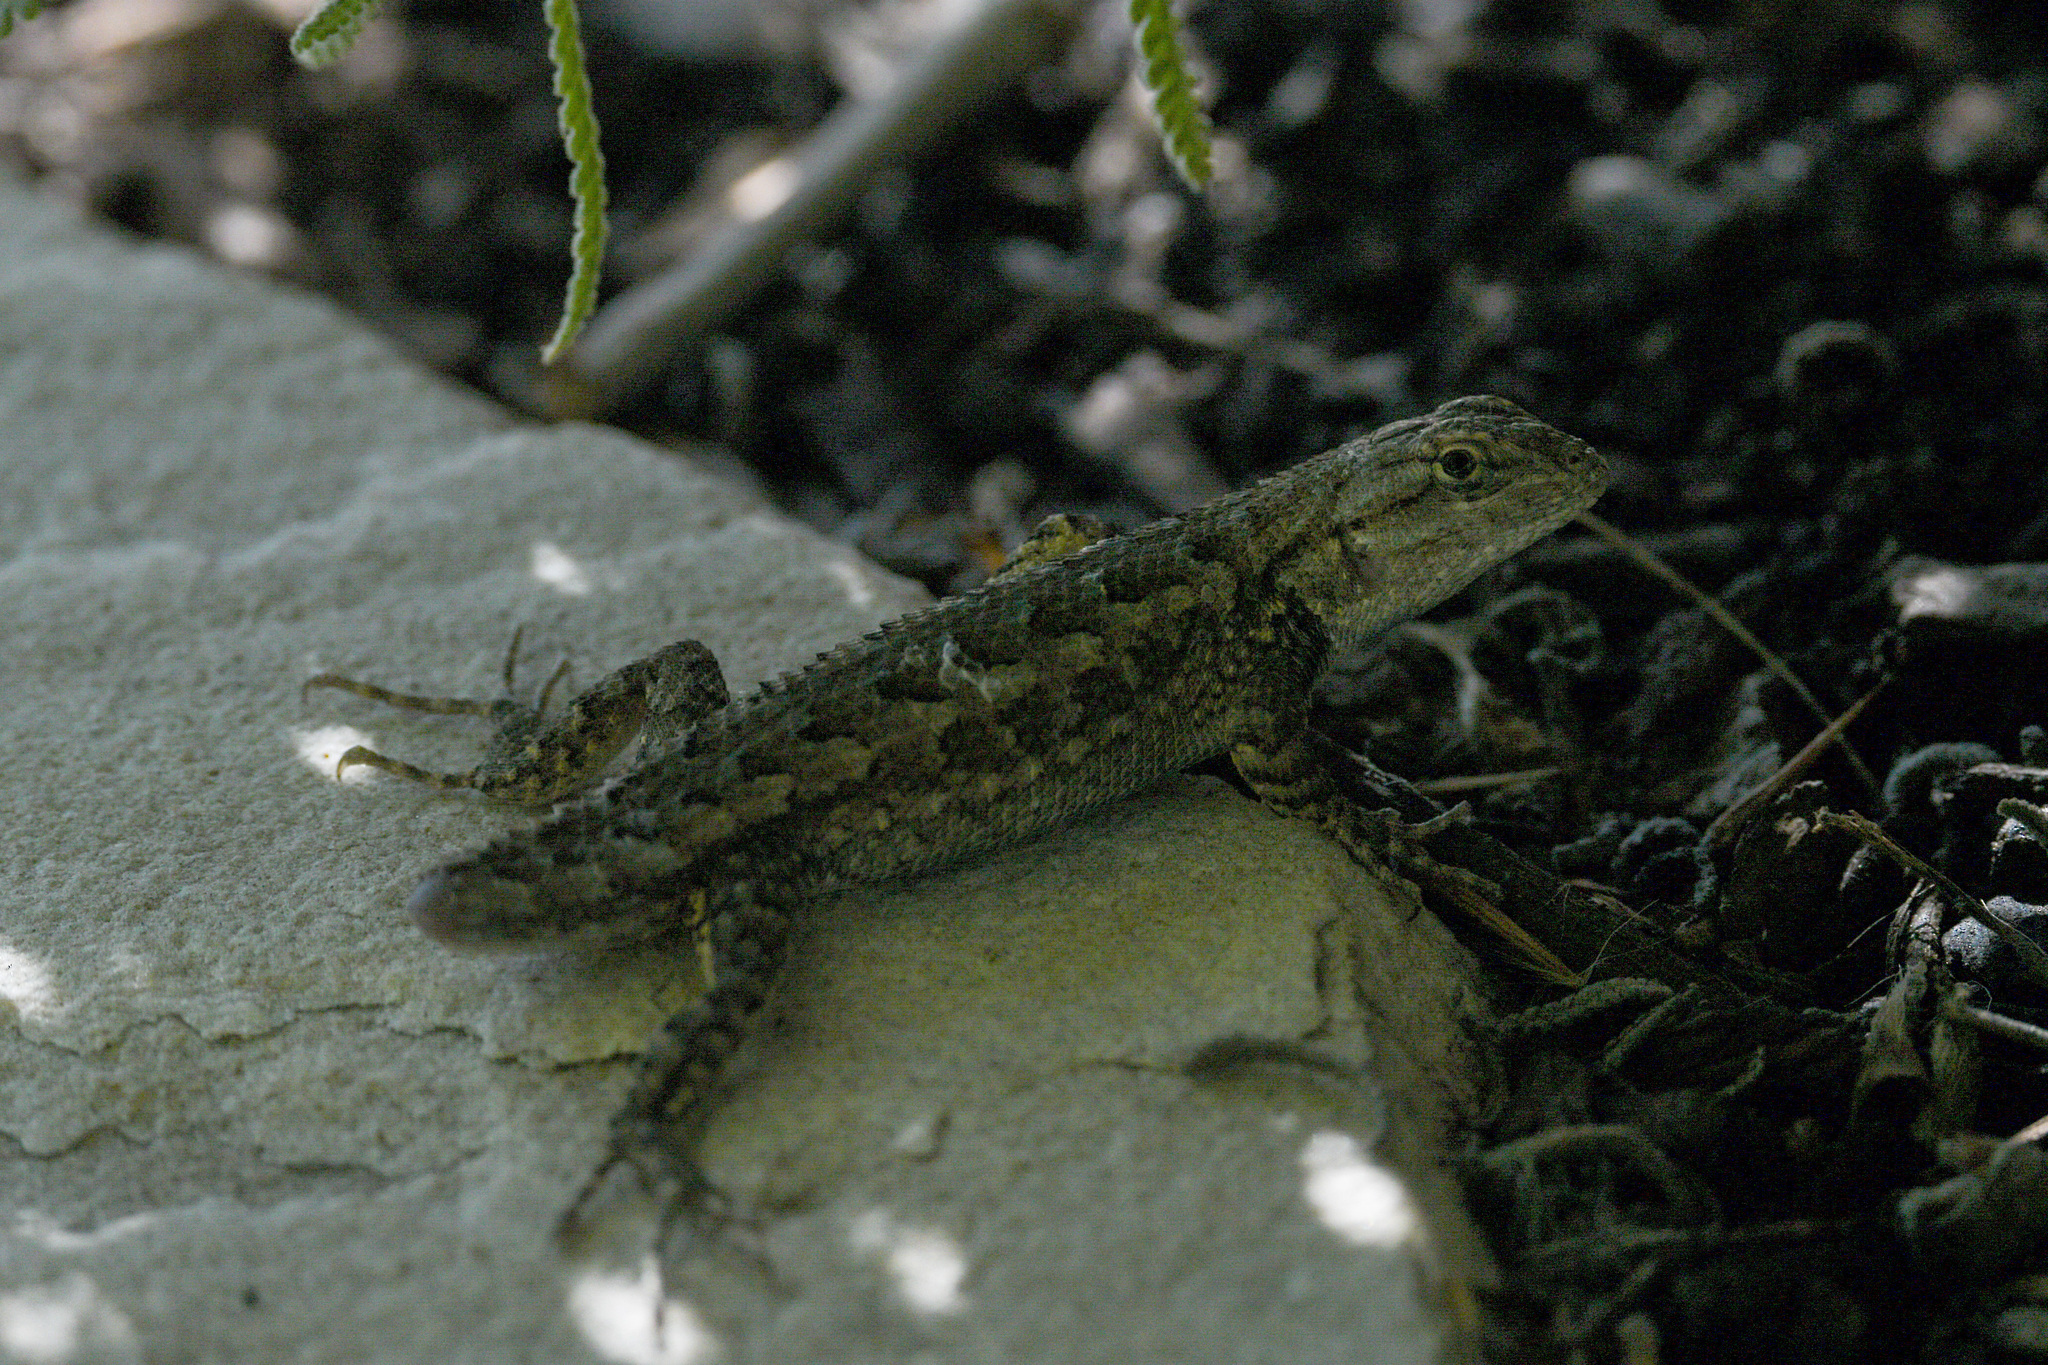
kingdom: Animalia
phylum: Chordata
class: Squamata
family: Phrynosomatidae
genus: Sceloporus
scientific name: Sceloporus occidentalis
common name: Western fence lizard
